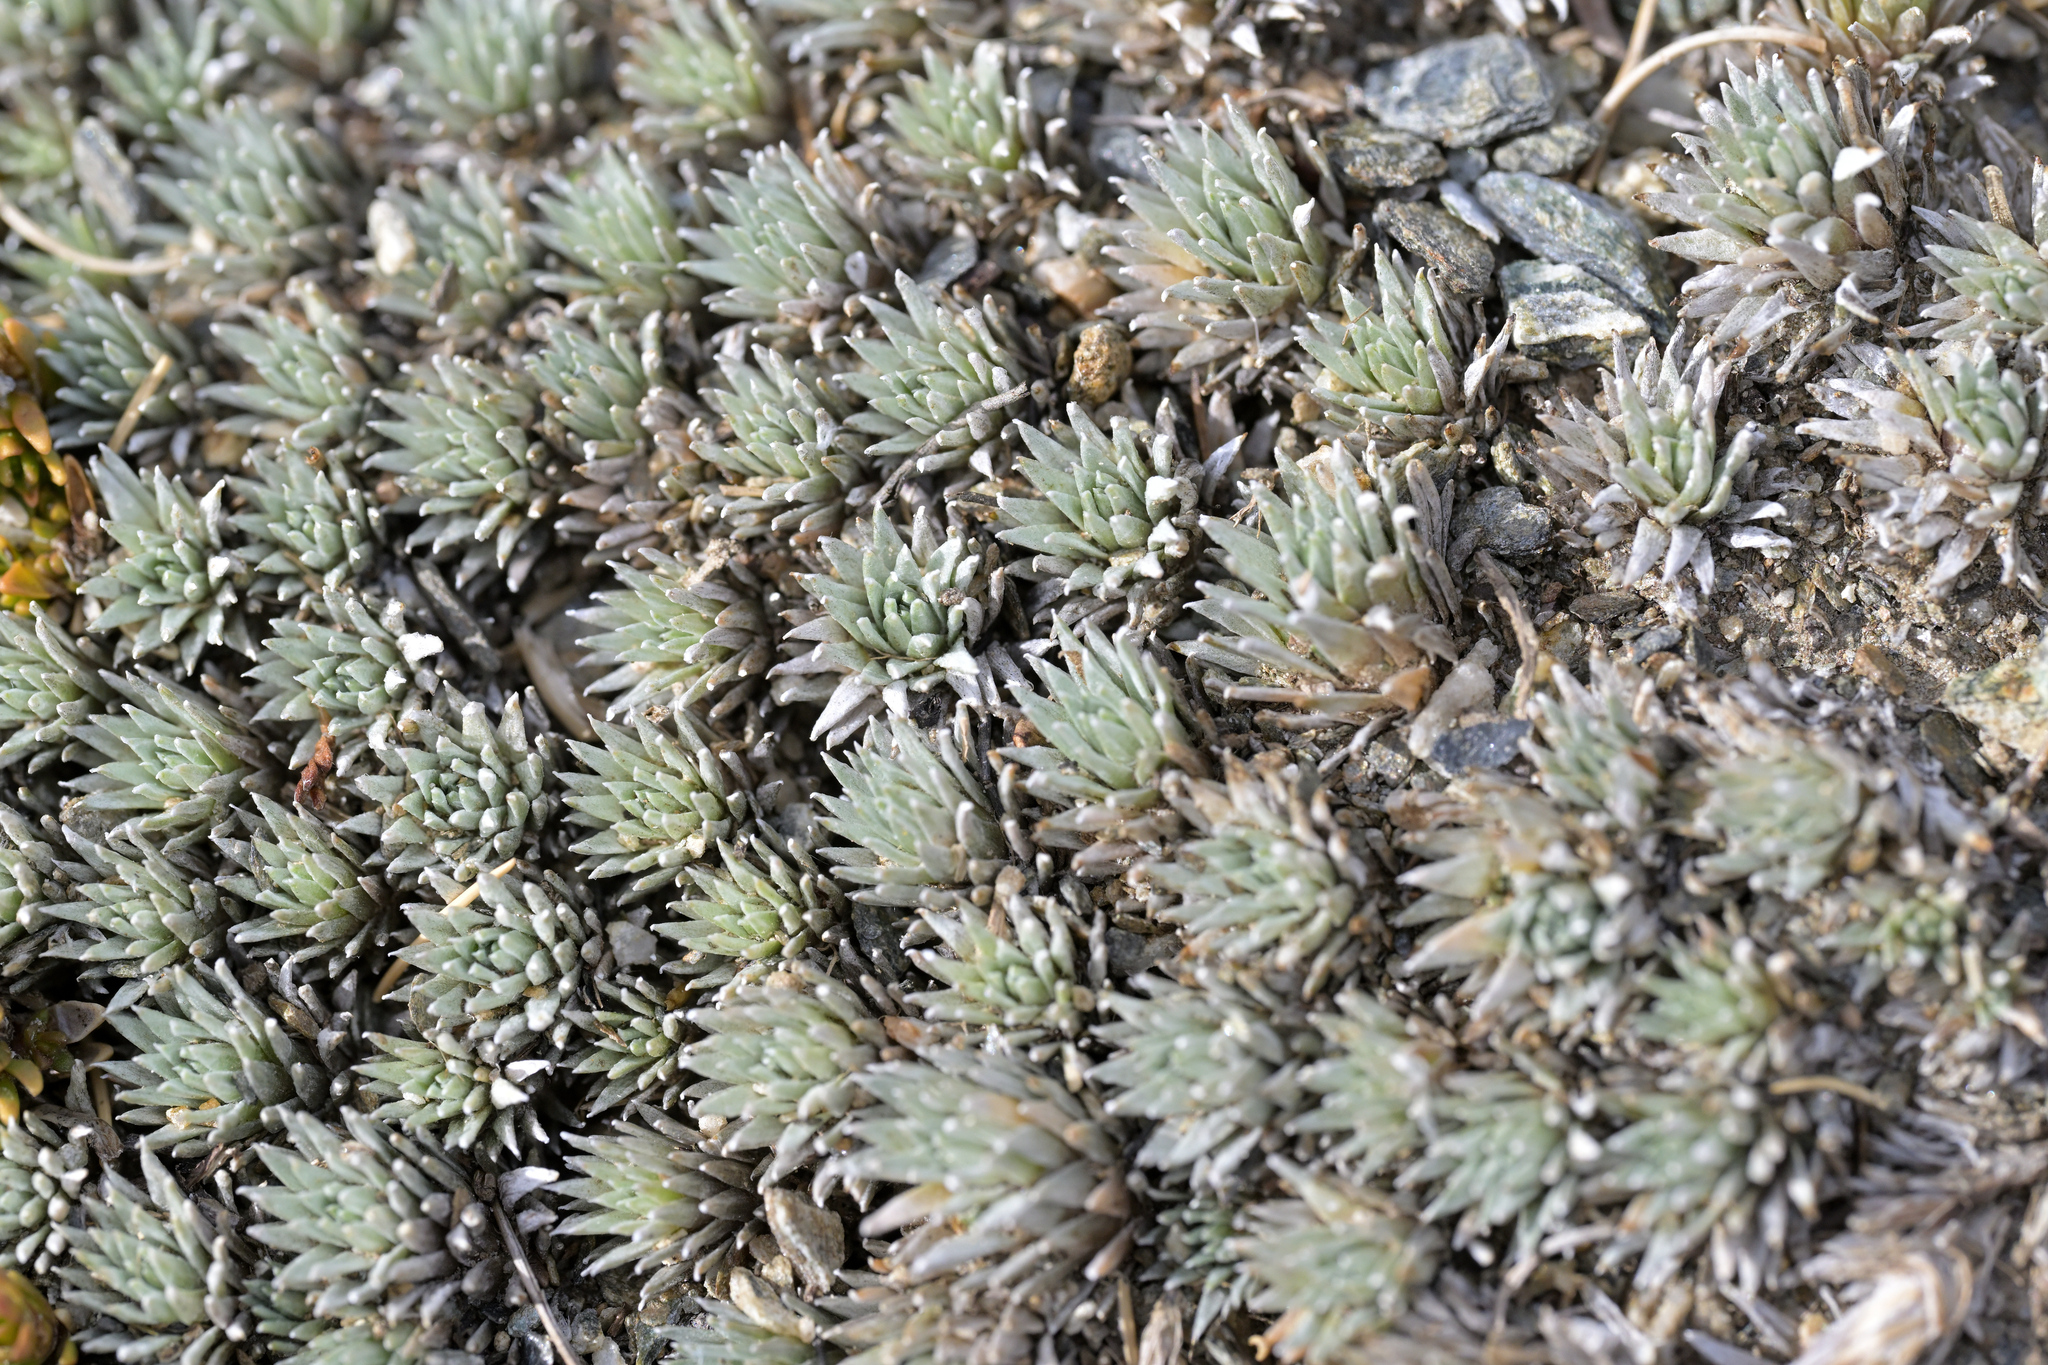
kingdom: Plantae
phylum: Tracheophyta
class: Magnoliopsida
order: Asterales
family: Asteraceae
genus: Raoulia
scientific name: Raoulia grandiflora
